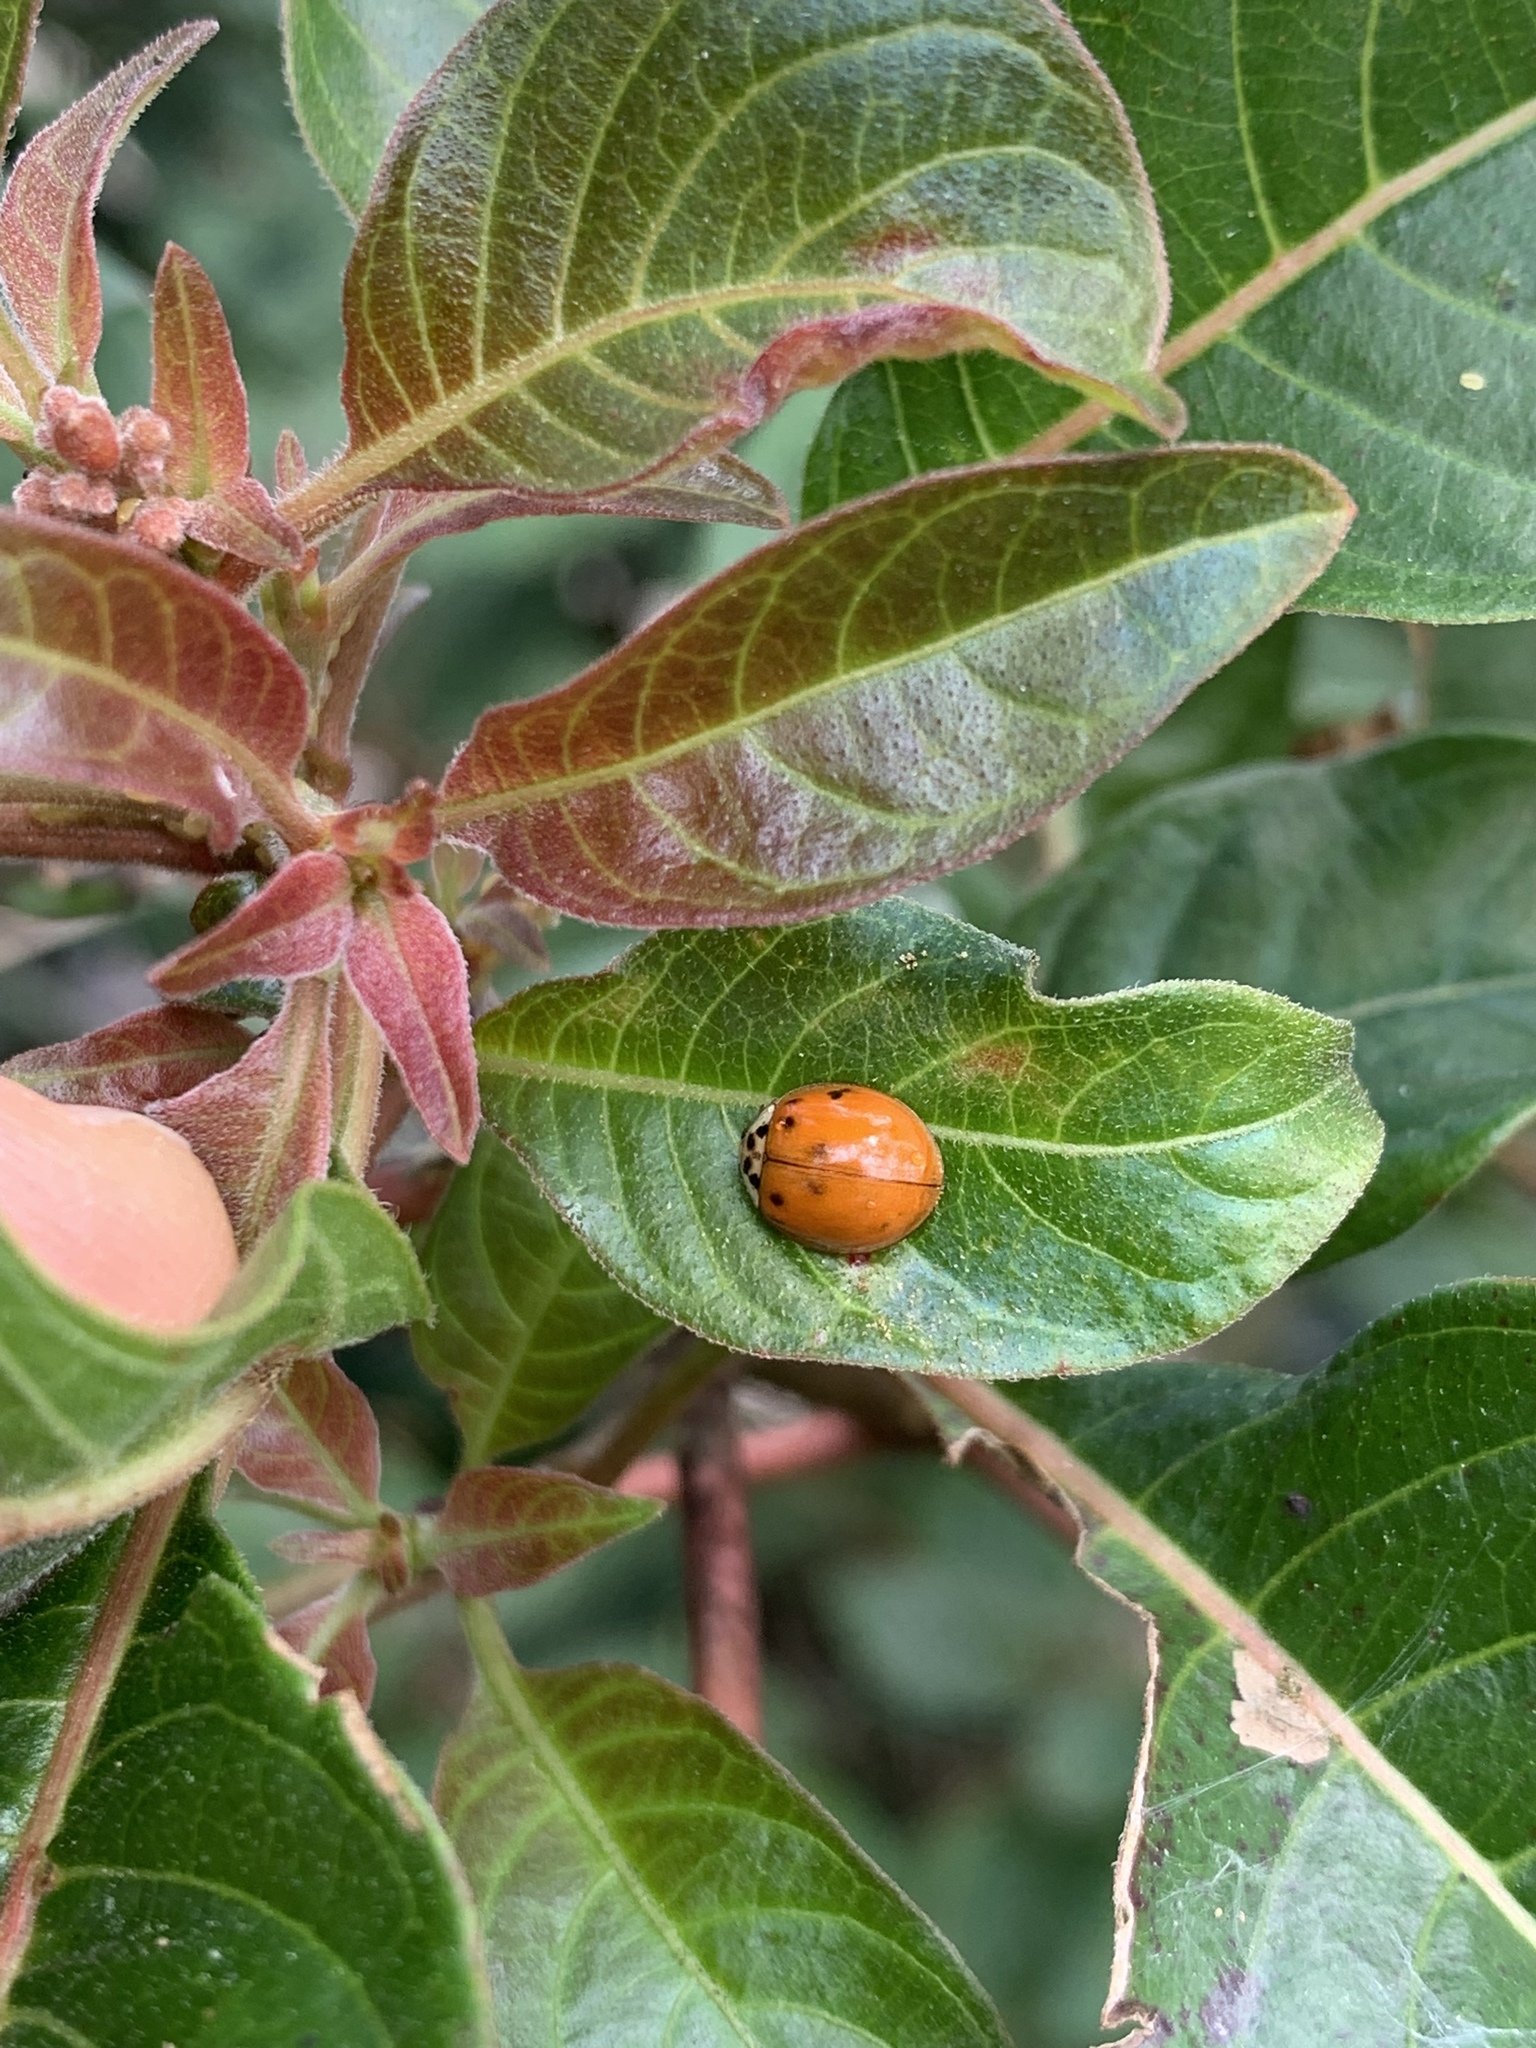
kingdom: Animalia
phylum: Arthropoda
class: Insecta
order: Coleoptera
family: Coccinellidae
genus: Harmonia
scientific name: Harmonia axyridis
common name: Harlequin ladybird
